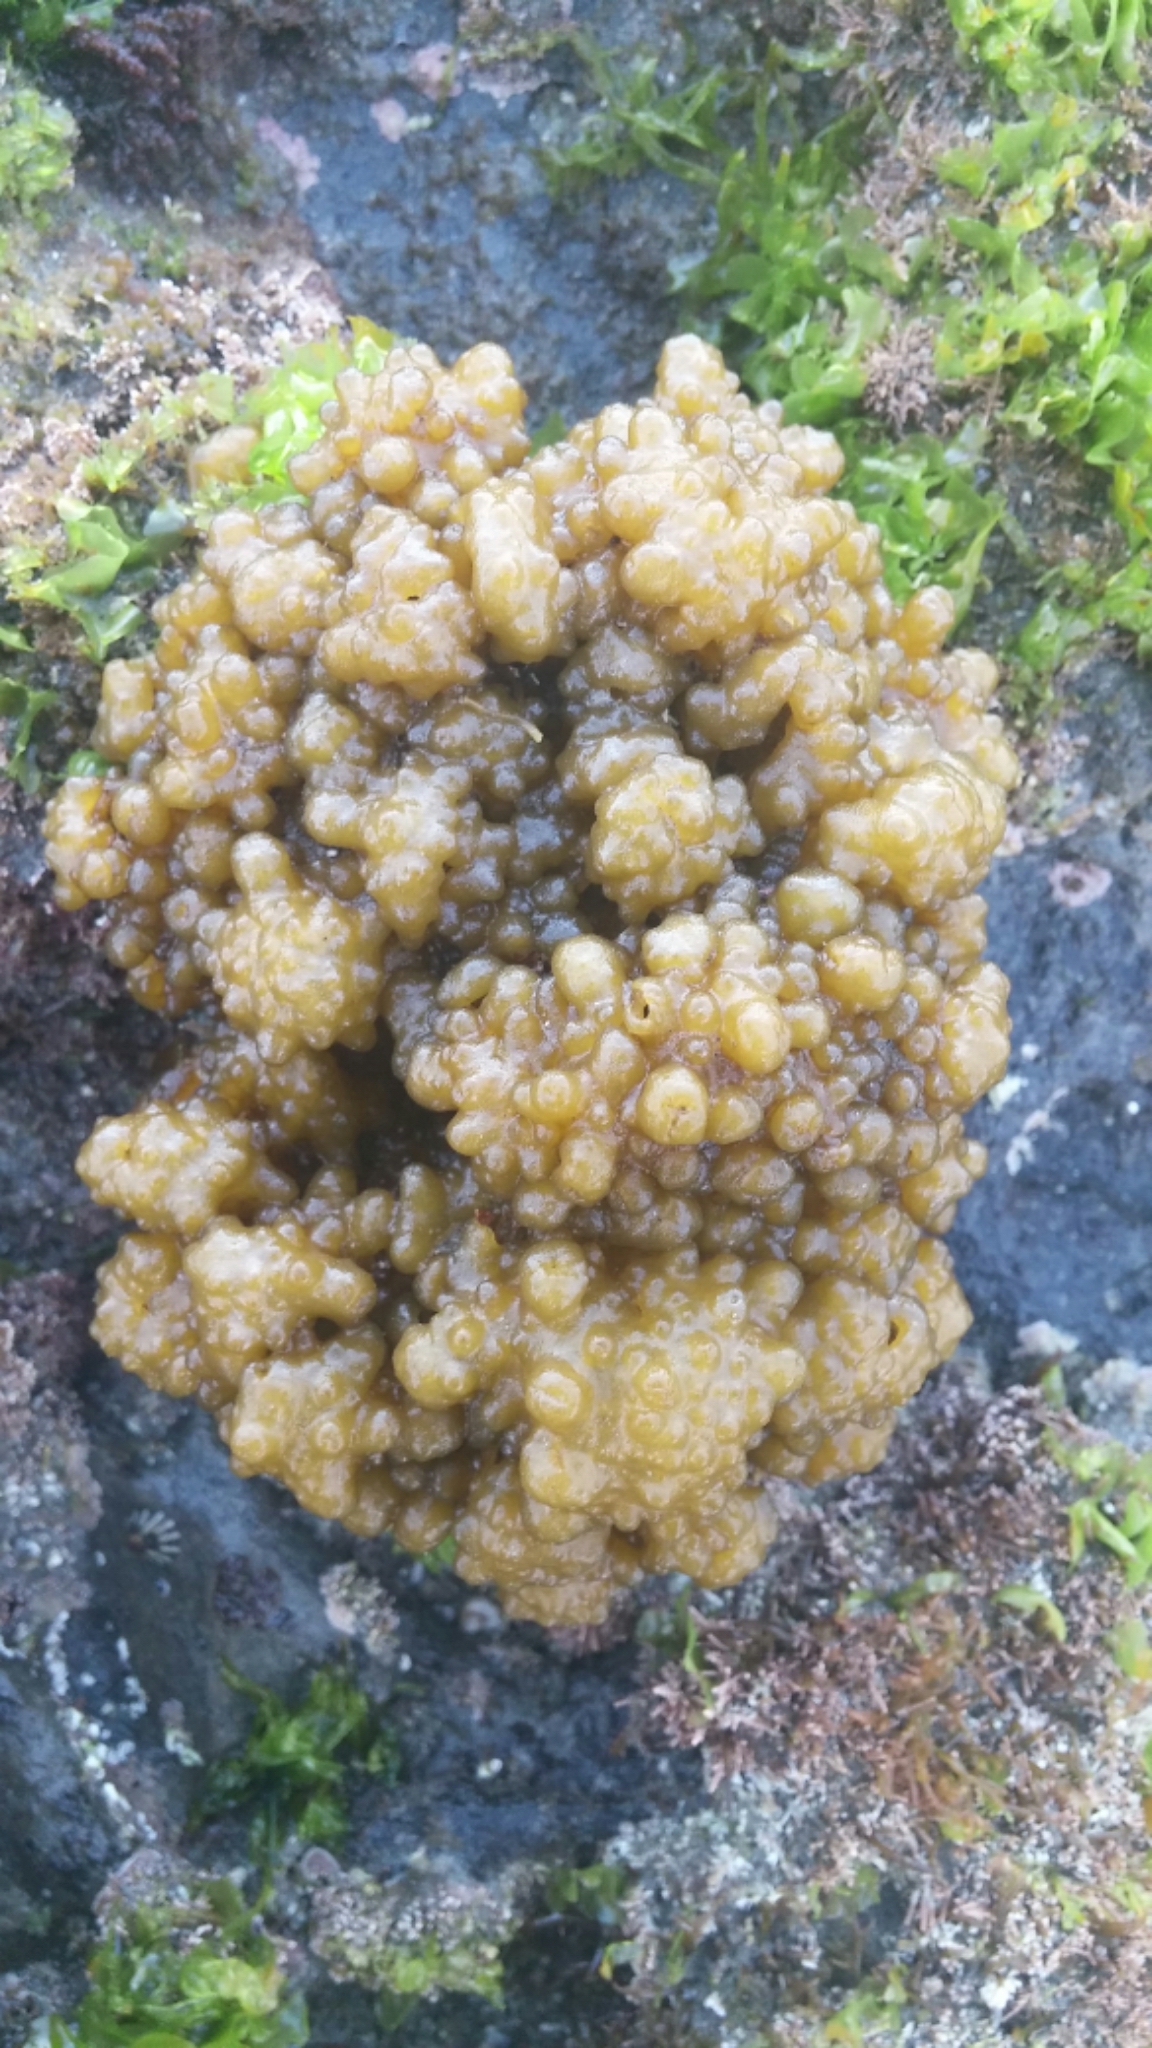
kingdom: Chromista
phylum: Ochrophyta
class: Phaeophyceae
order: Scytosiphonales
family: Scytosiphonaceae
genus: Colpomenia
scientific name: Colpomenia
